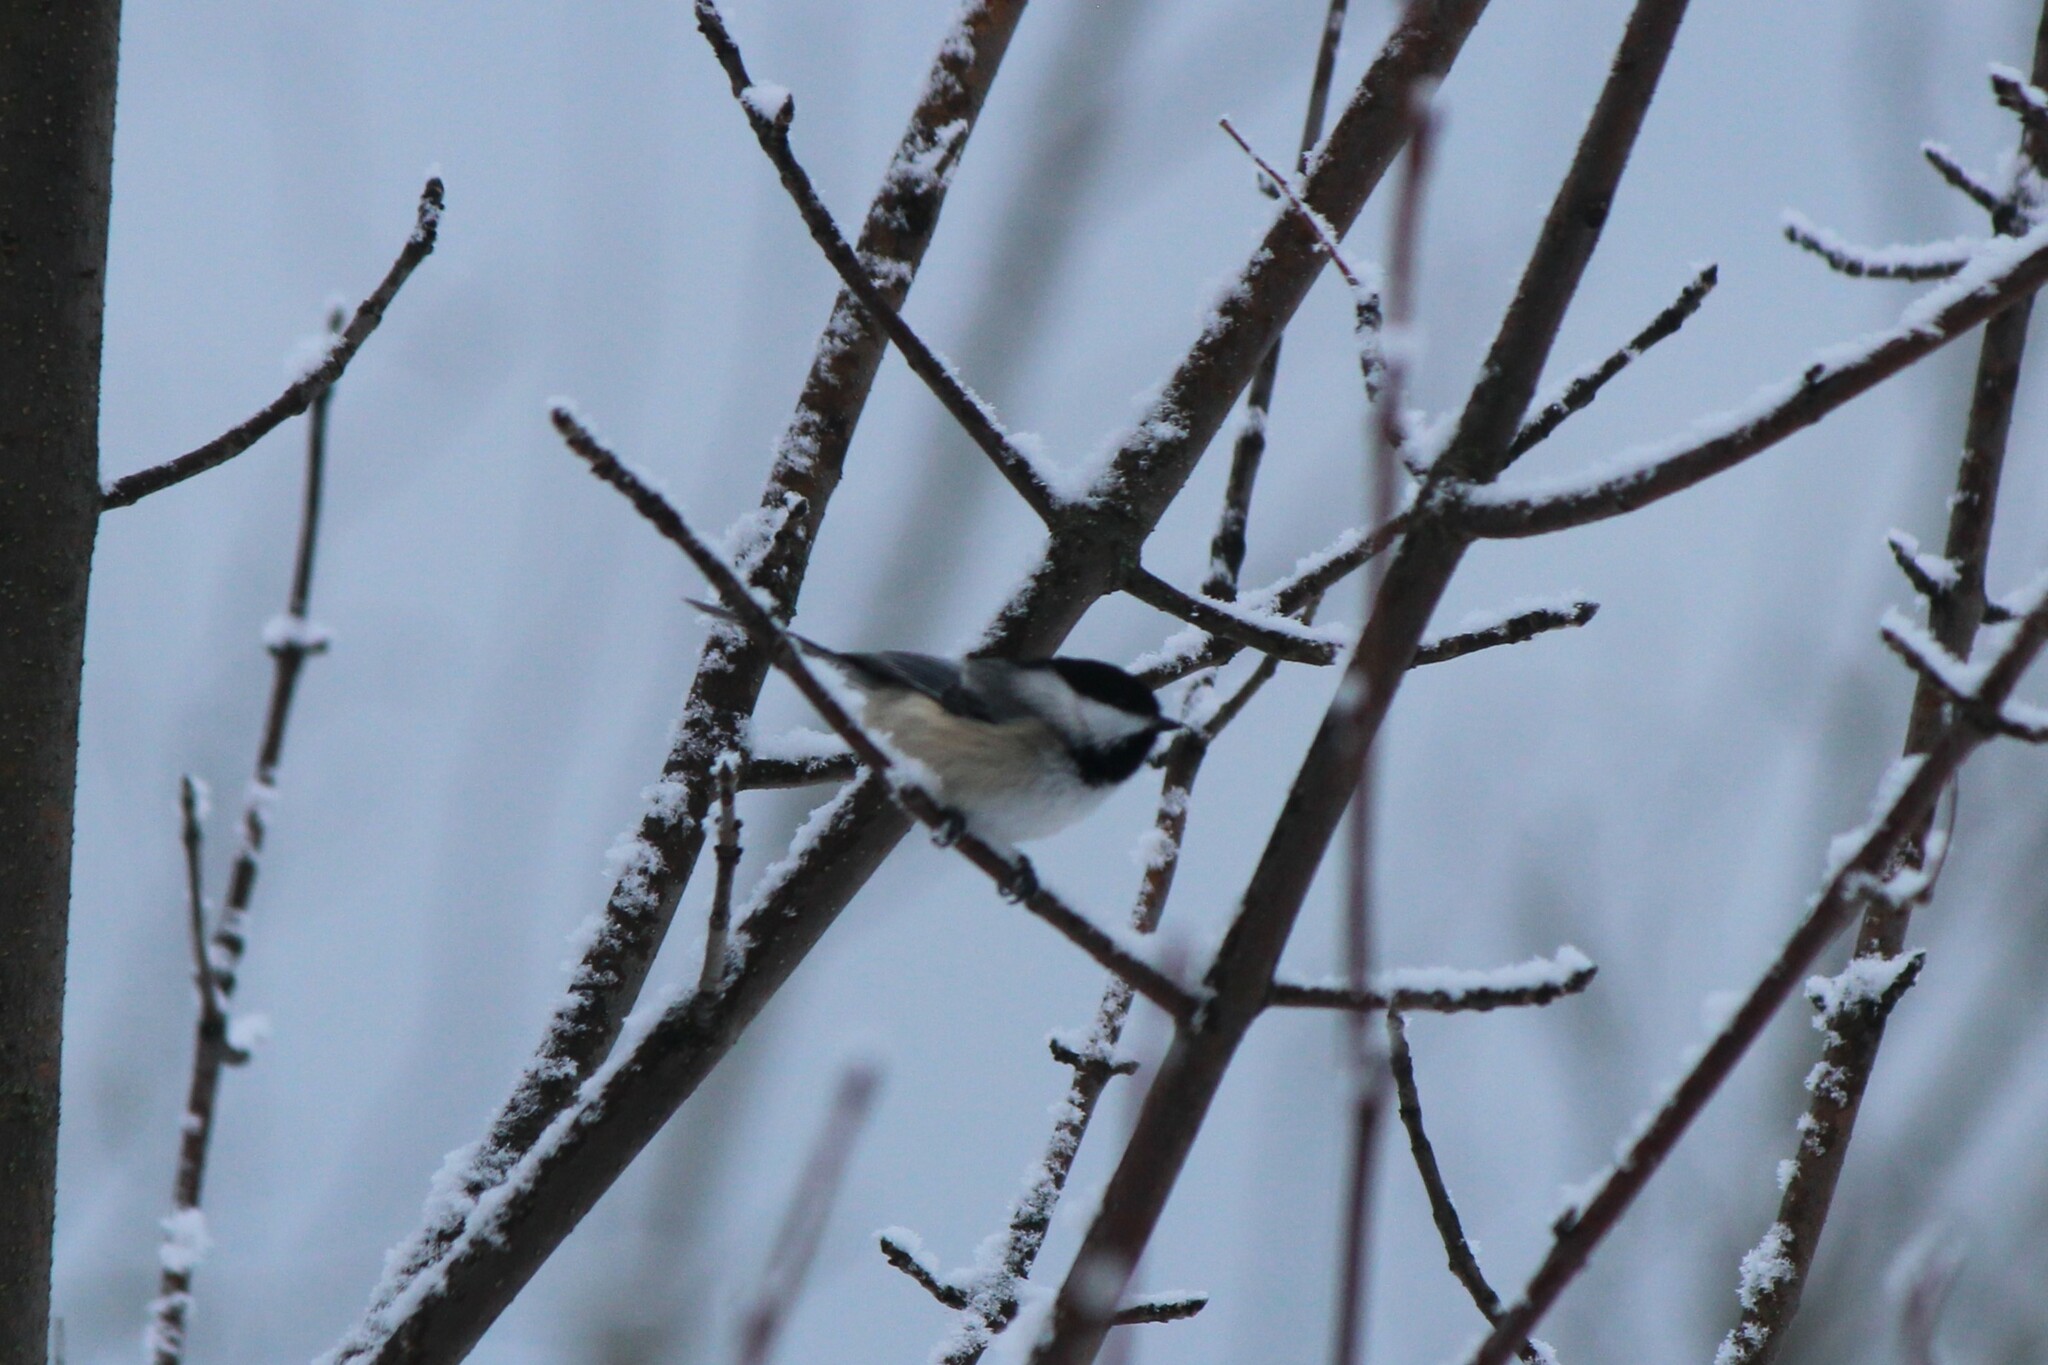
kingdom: Animalia
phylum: Chordata
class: Aves
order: Passeriformes
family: Paridae
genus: Poecile
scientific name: Poecile atricapillus
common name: Black-capped chickadee
